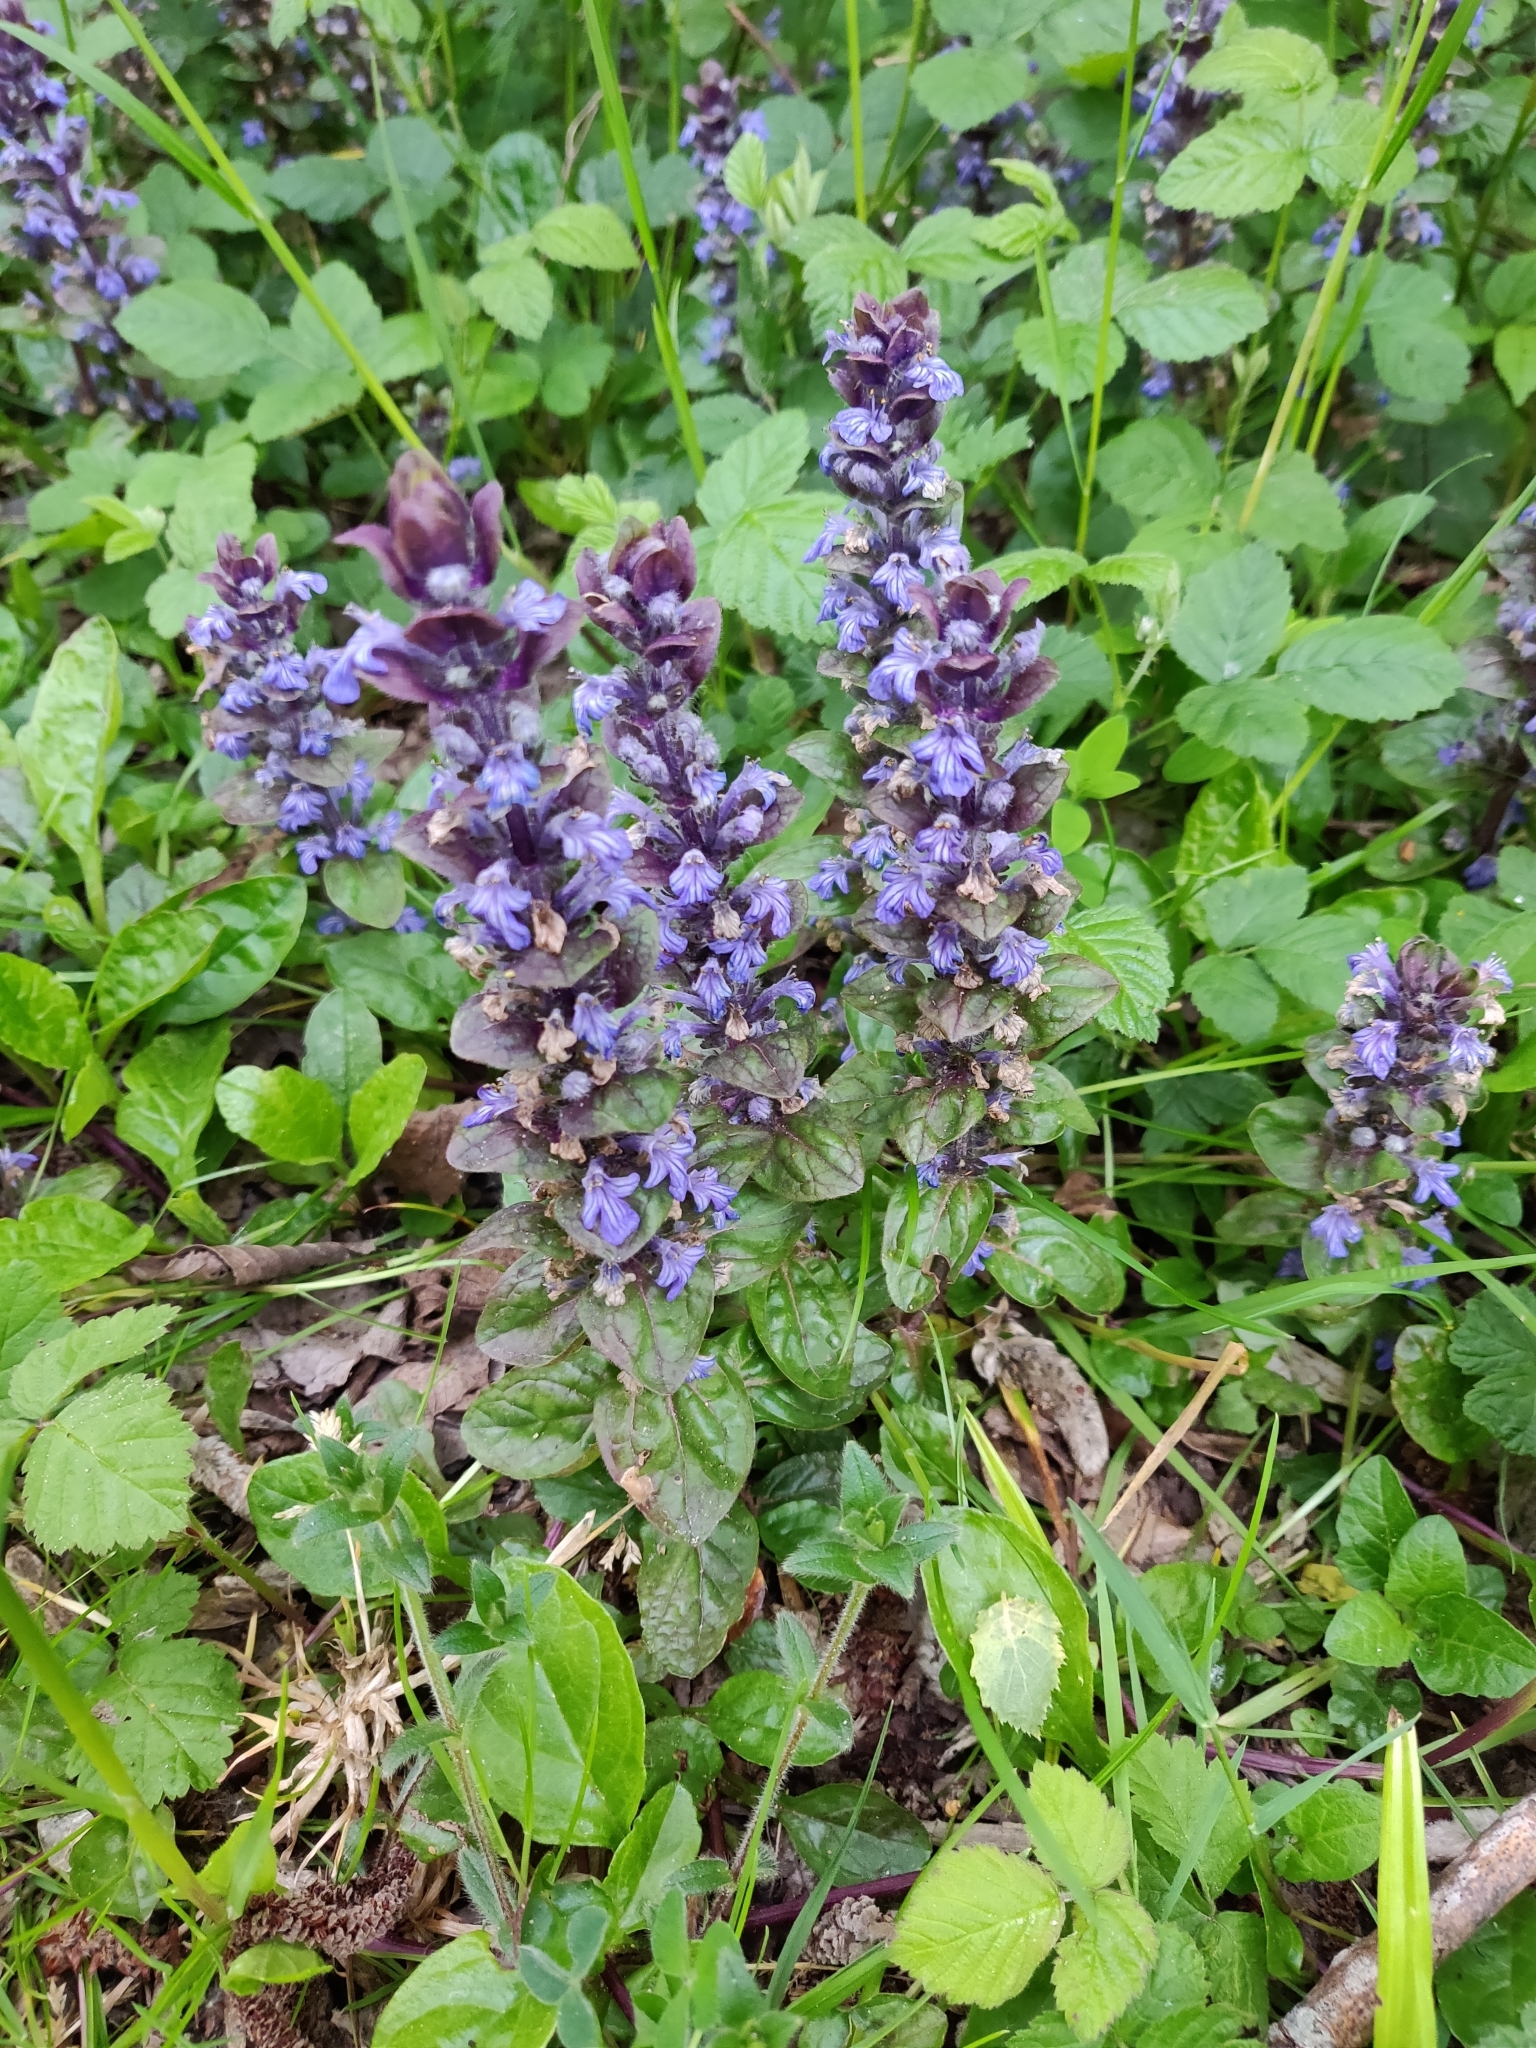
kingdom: Plantae
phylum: Tracheophyta
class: Magnoliopsida
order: Lamiales
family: Lamiaceae
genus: Ajuga
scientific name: Ajuga reptans
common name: Bugle
